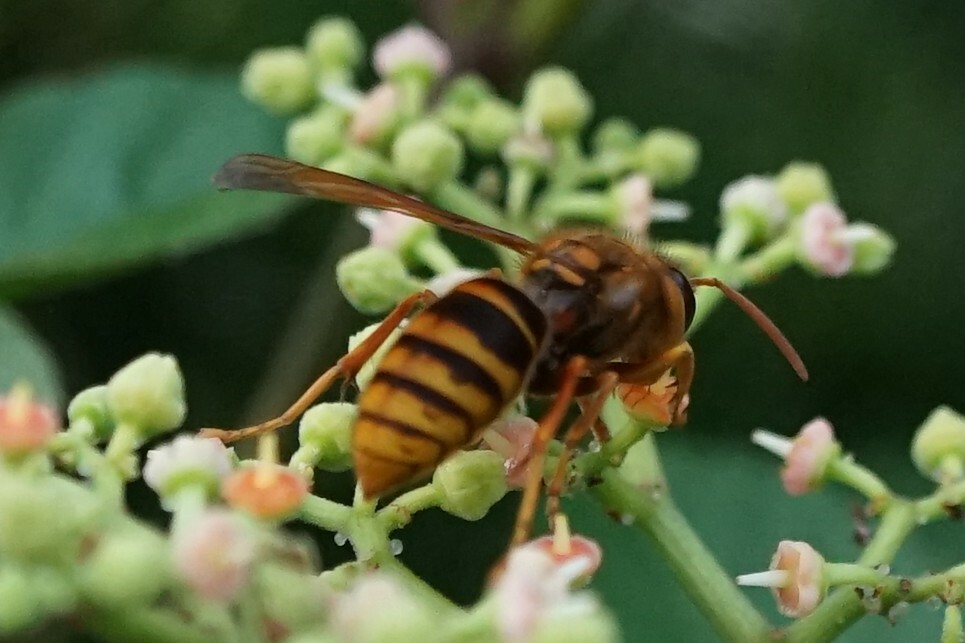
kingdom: Animalia
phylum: Arthropoda
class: Insecta
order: Hymenoptera
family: Vespidae
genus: Vespa
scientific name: Vespa simillima
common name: Vespid wasp
